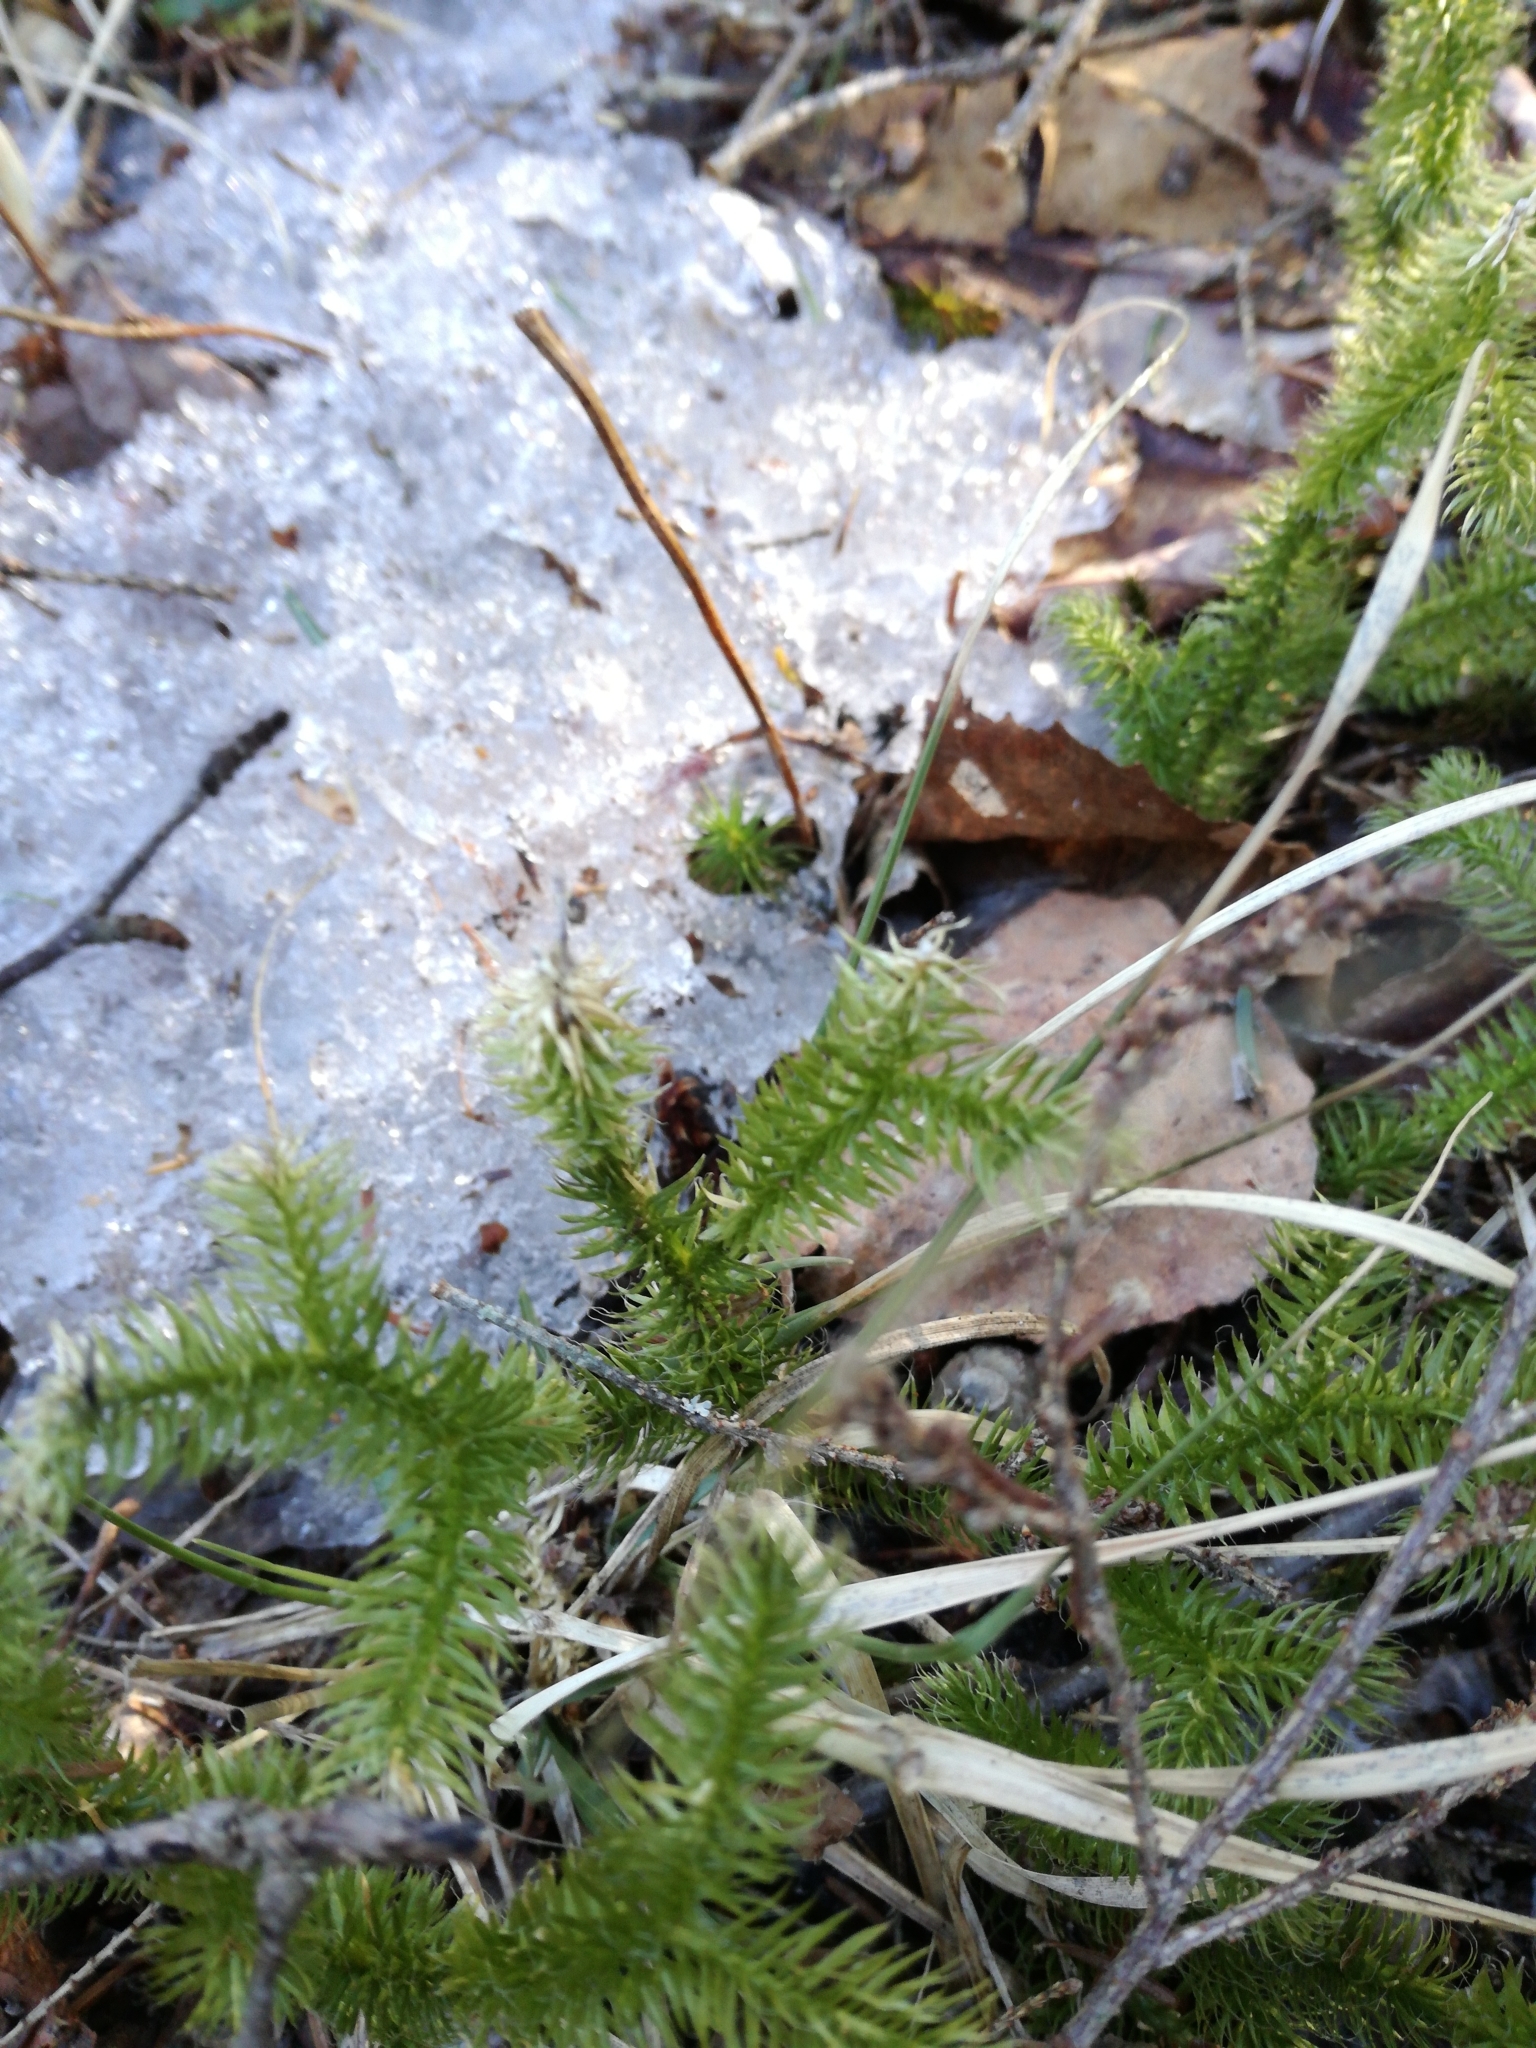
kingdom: Plantae
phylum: Tracheophyta
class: Lycopodiopsida
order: Lycopodiales
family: Lycopodiaceae
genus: Lycopodium
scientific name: Lycopodium clavatum
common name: Stag's-horn clubmoss
